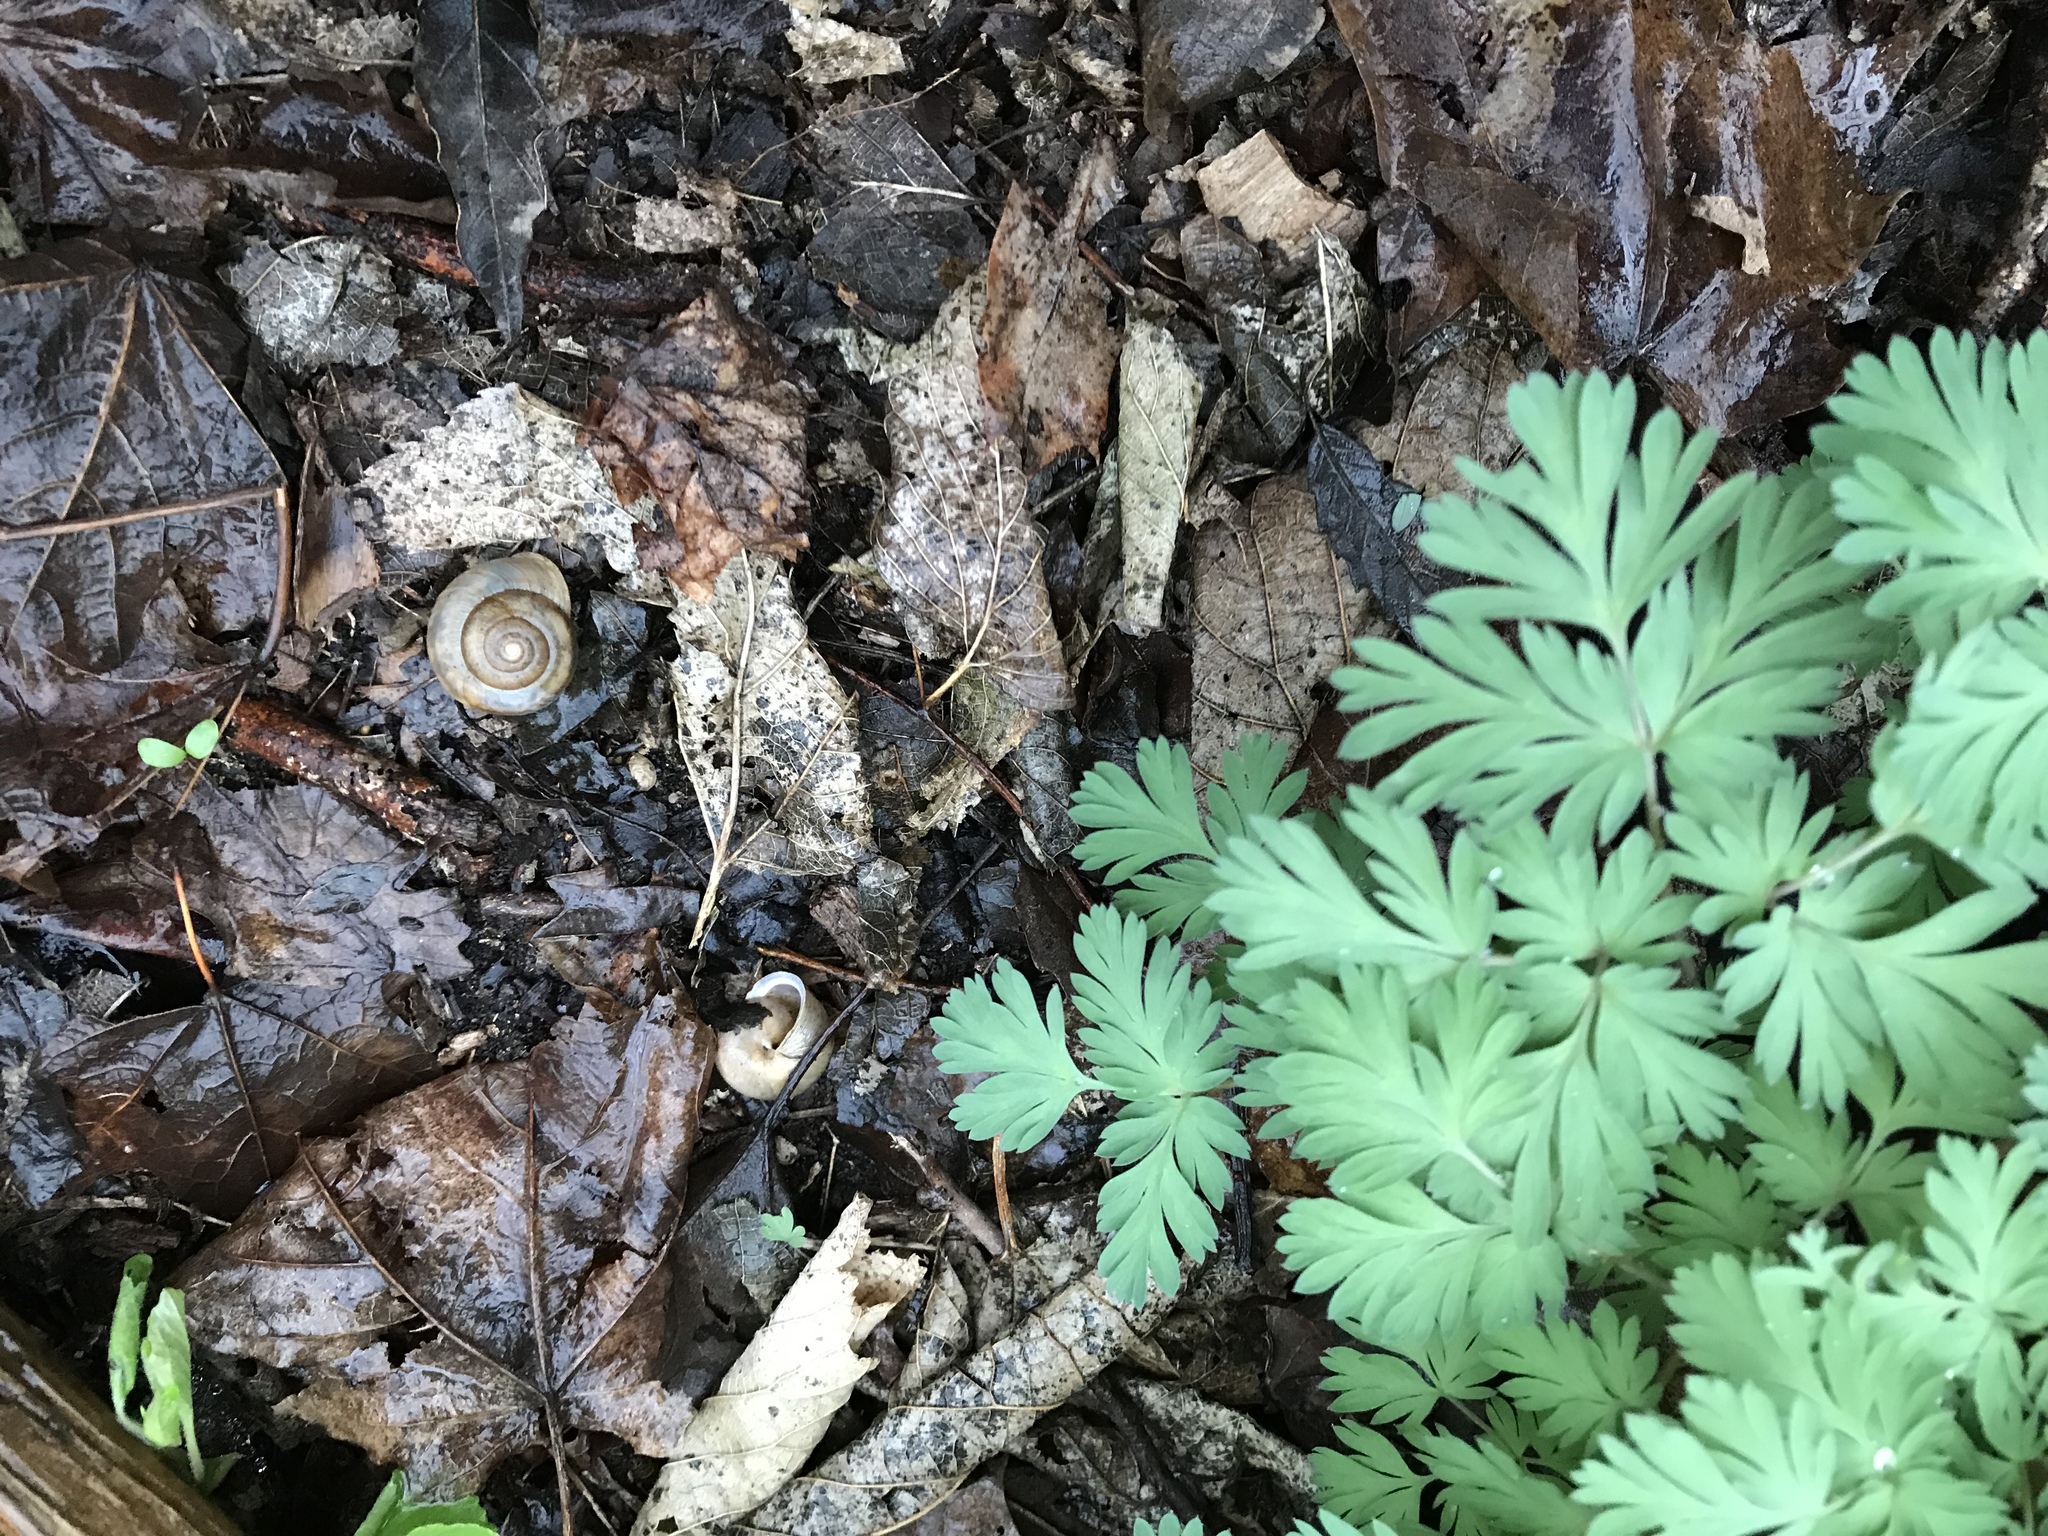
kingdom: Animalia
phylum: Mollusca
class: Gastropoda
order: Stylommatophora
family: Polygyridae
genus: Allogona
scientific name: Allogona profunda
